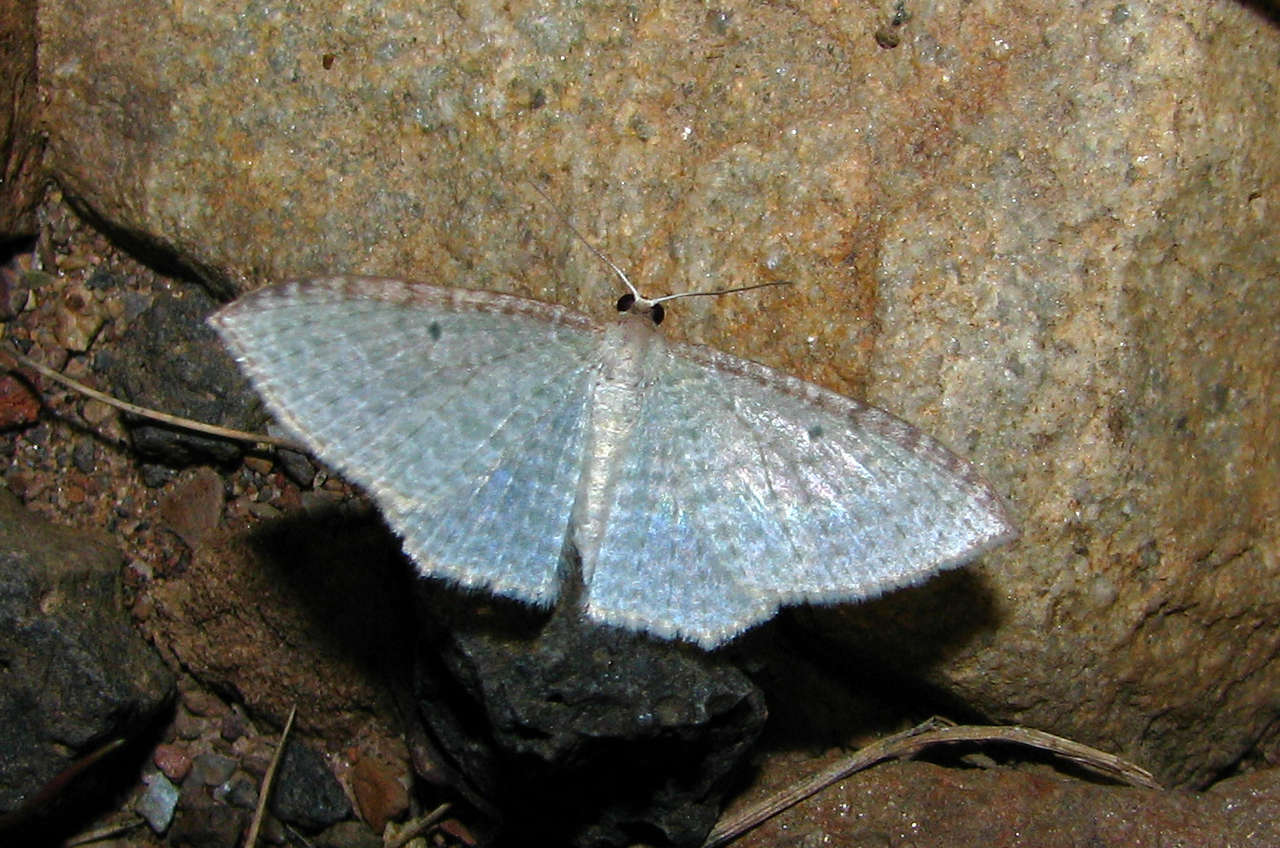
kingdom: Animalia
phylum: Arthropoda
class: Insecta
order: Lepidoptera
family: Geometridae
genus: Poecilasthena
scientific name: Poecilasthena pulchraria
